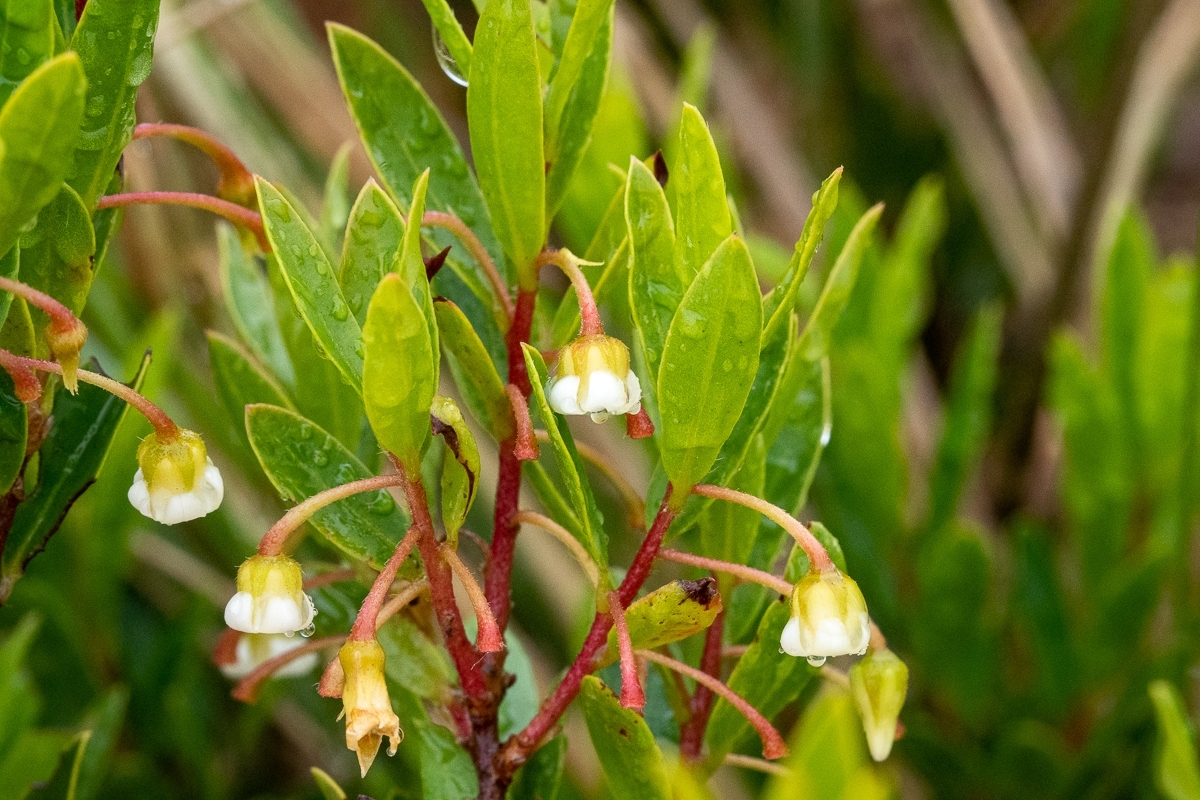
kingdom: Plantae
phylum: Tracheophyta
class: Magnoliopsida
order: Ericales
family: Ebenaceae
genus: Diospyros
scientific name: Diospyros glabra
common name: Fynbos star apple
